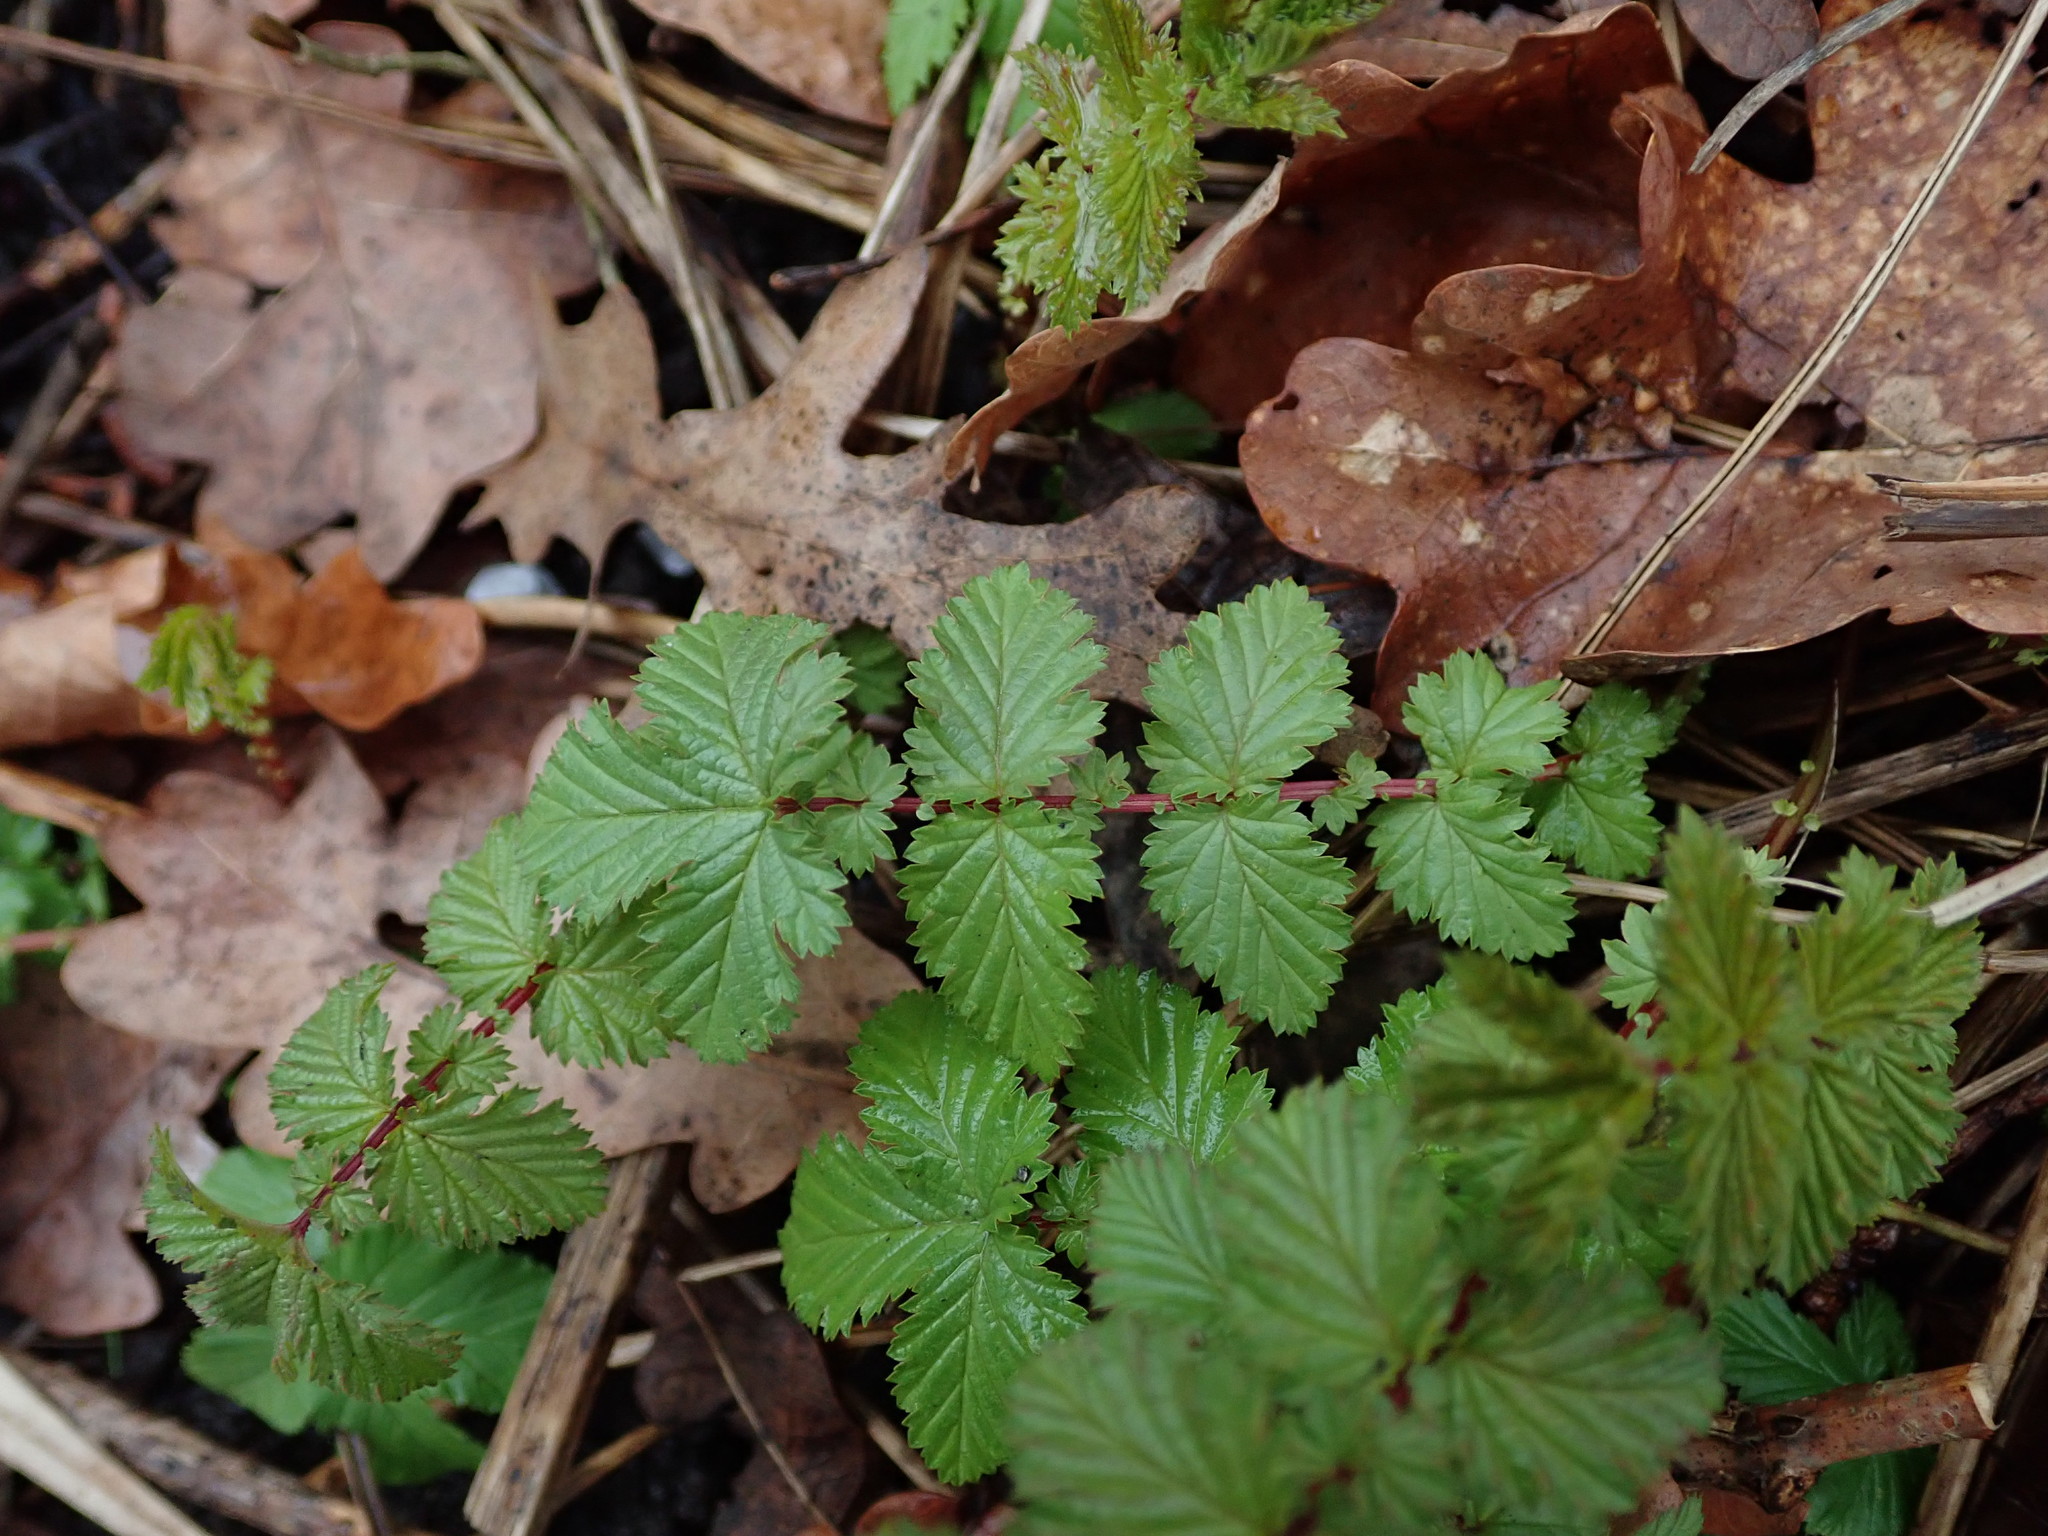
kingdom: Plantae
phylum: Tracheophyta
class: Magnoliopsida
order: Rosales
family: Rosaceae
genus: Filipendula
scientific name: Filipendula ulmaria
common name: Meadowsweet
